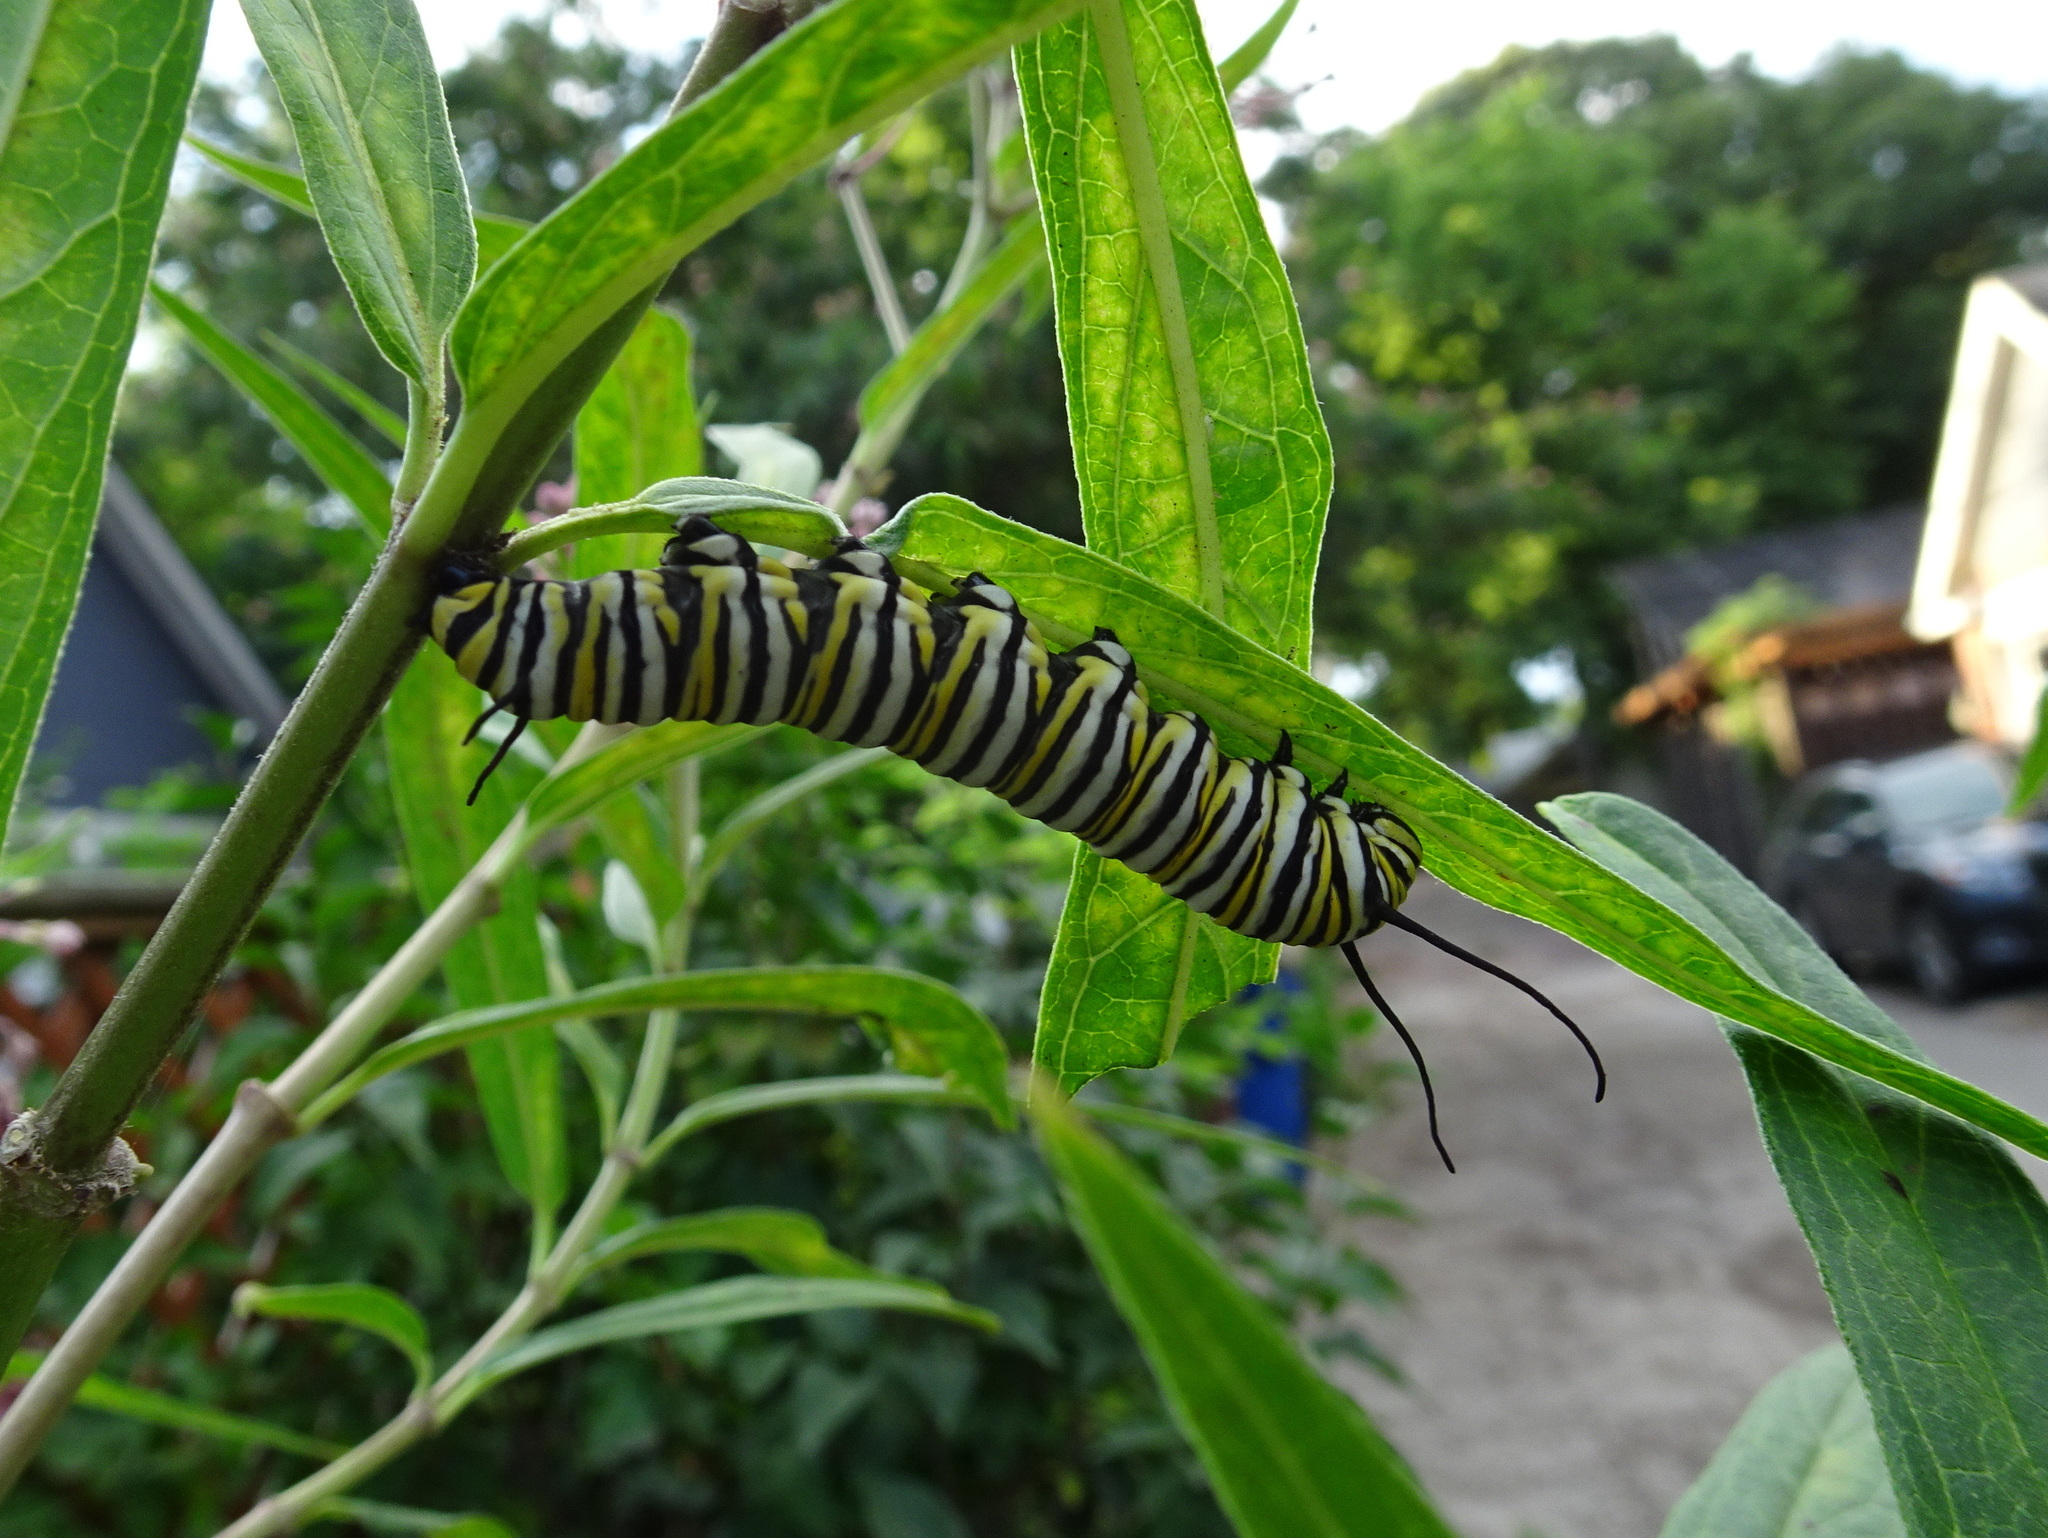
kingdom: Animalia
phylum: Arthropoda
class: Insecta
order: Lepidoptera
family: Nymphalidae
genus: Danaus
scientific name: Danaus plexippus
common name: Monarch
